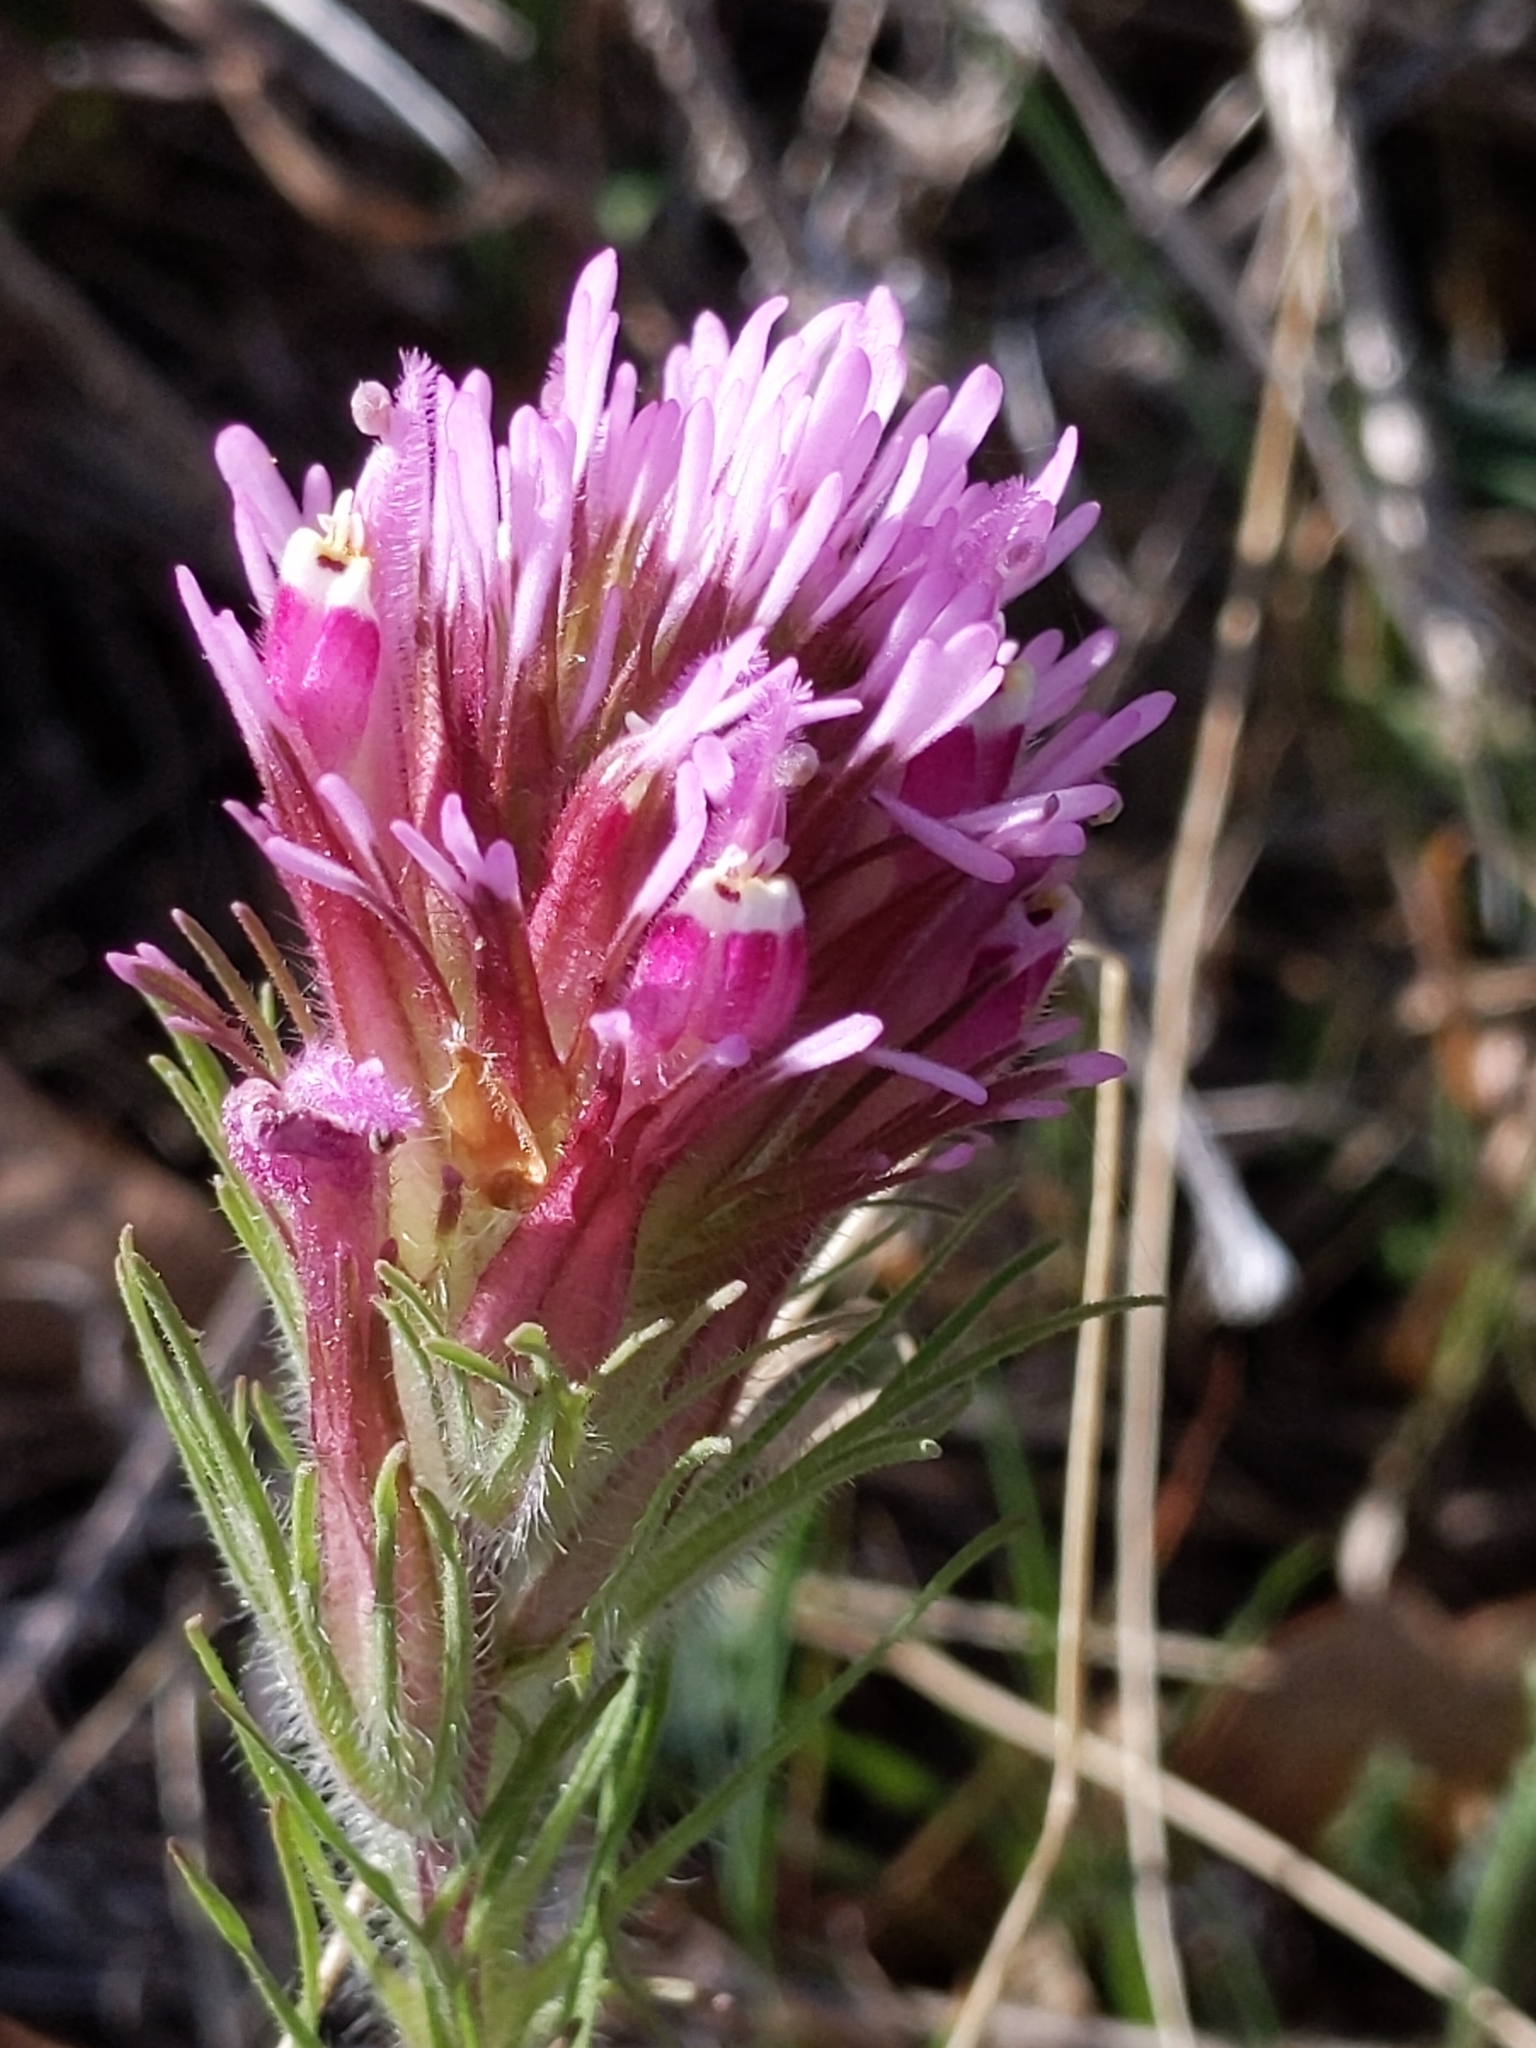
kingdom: Plantae
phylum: Tracheophyta
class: Magnoliopsida
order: Lamiales
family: Orobanchaceae
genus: Castilleja
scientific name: Castilleja exserta
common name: Purple owl-clover
